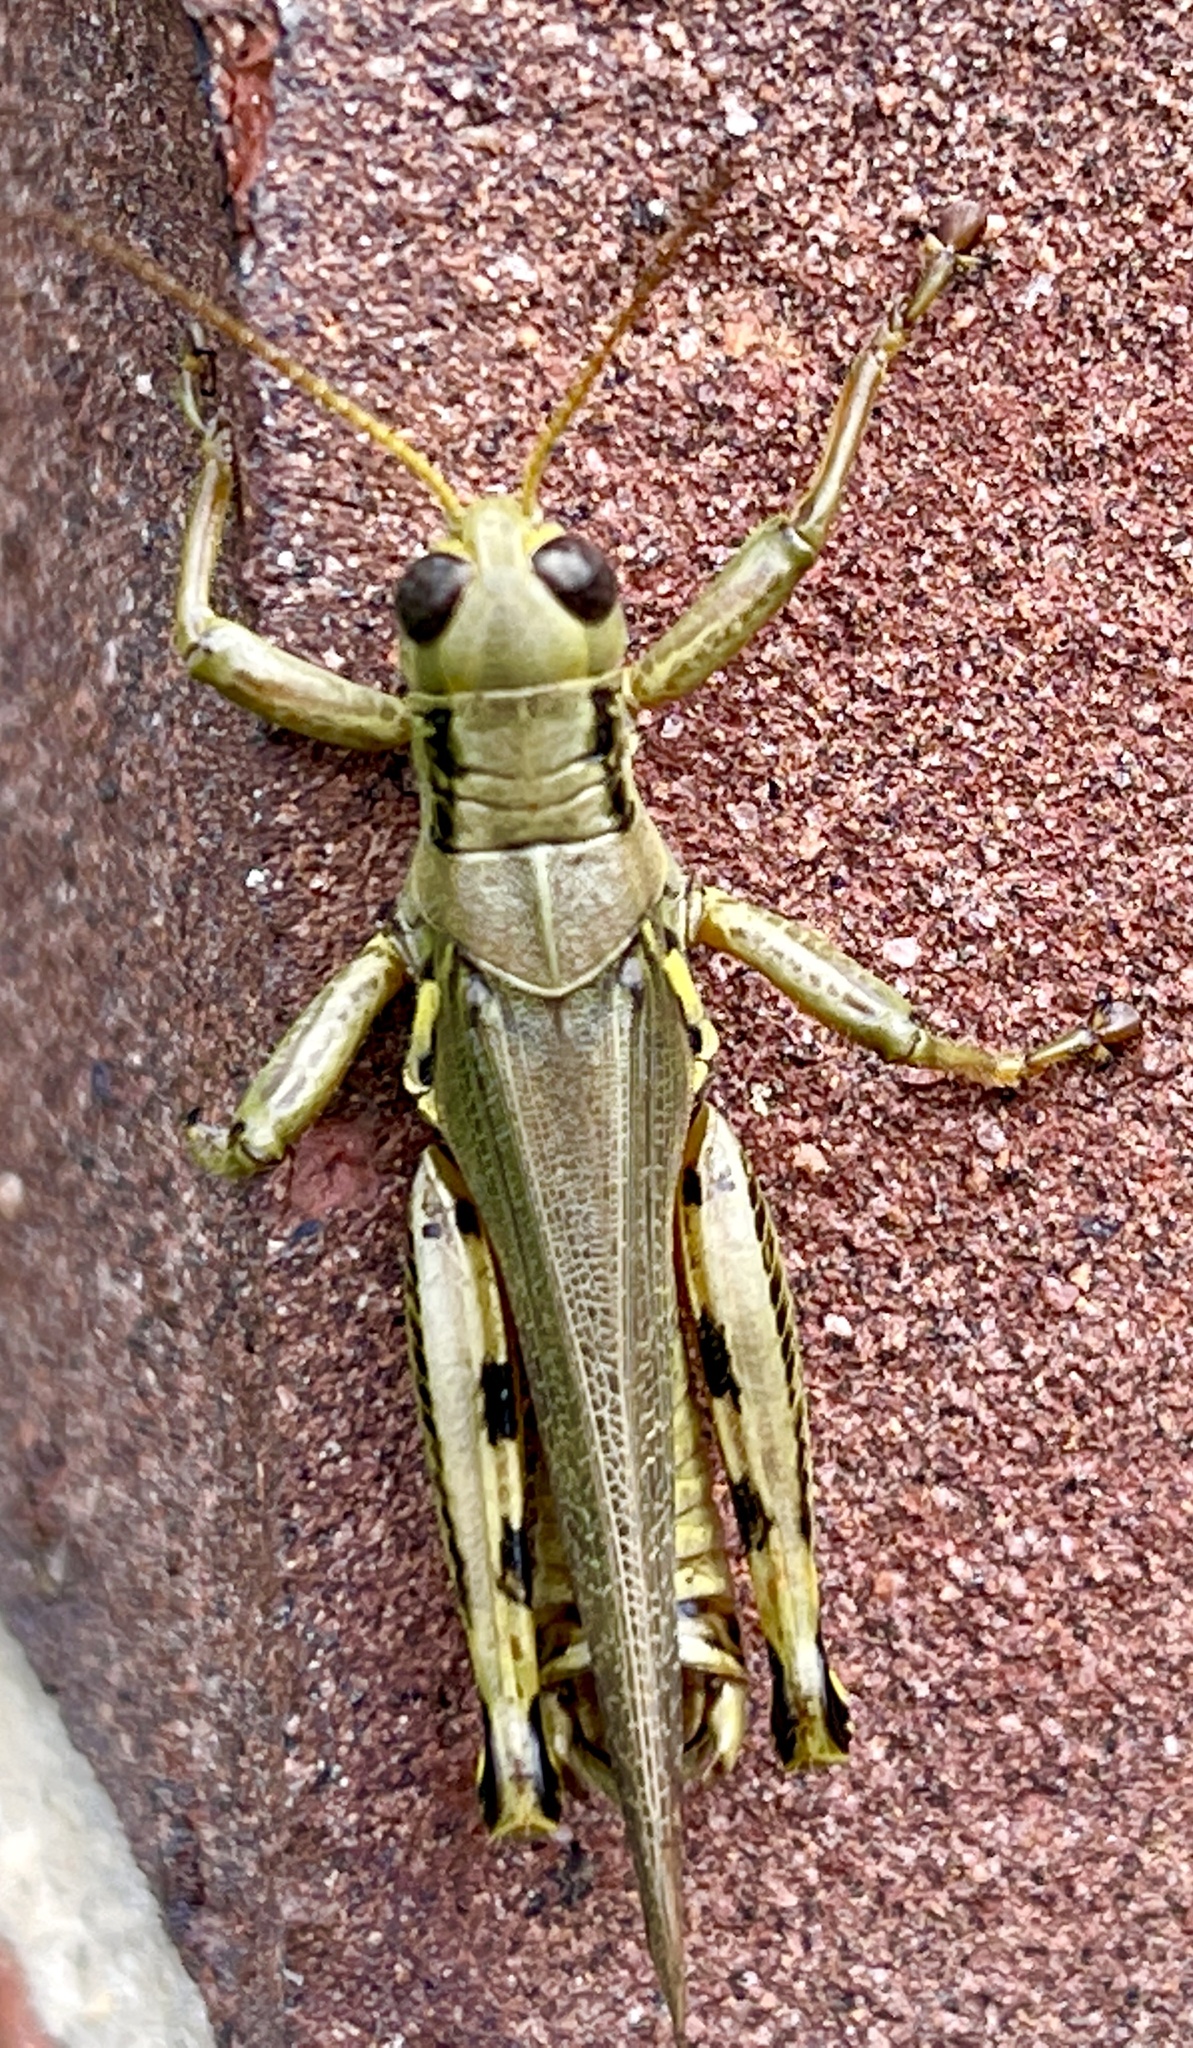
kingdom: Animalia
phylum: Arthropoda
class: Insecta
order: Orthoptera
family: Acrididae
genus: Melanoplus
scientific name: Melanoplus differentialis
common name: Differential grasshopper
